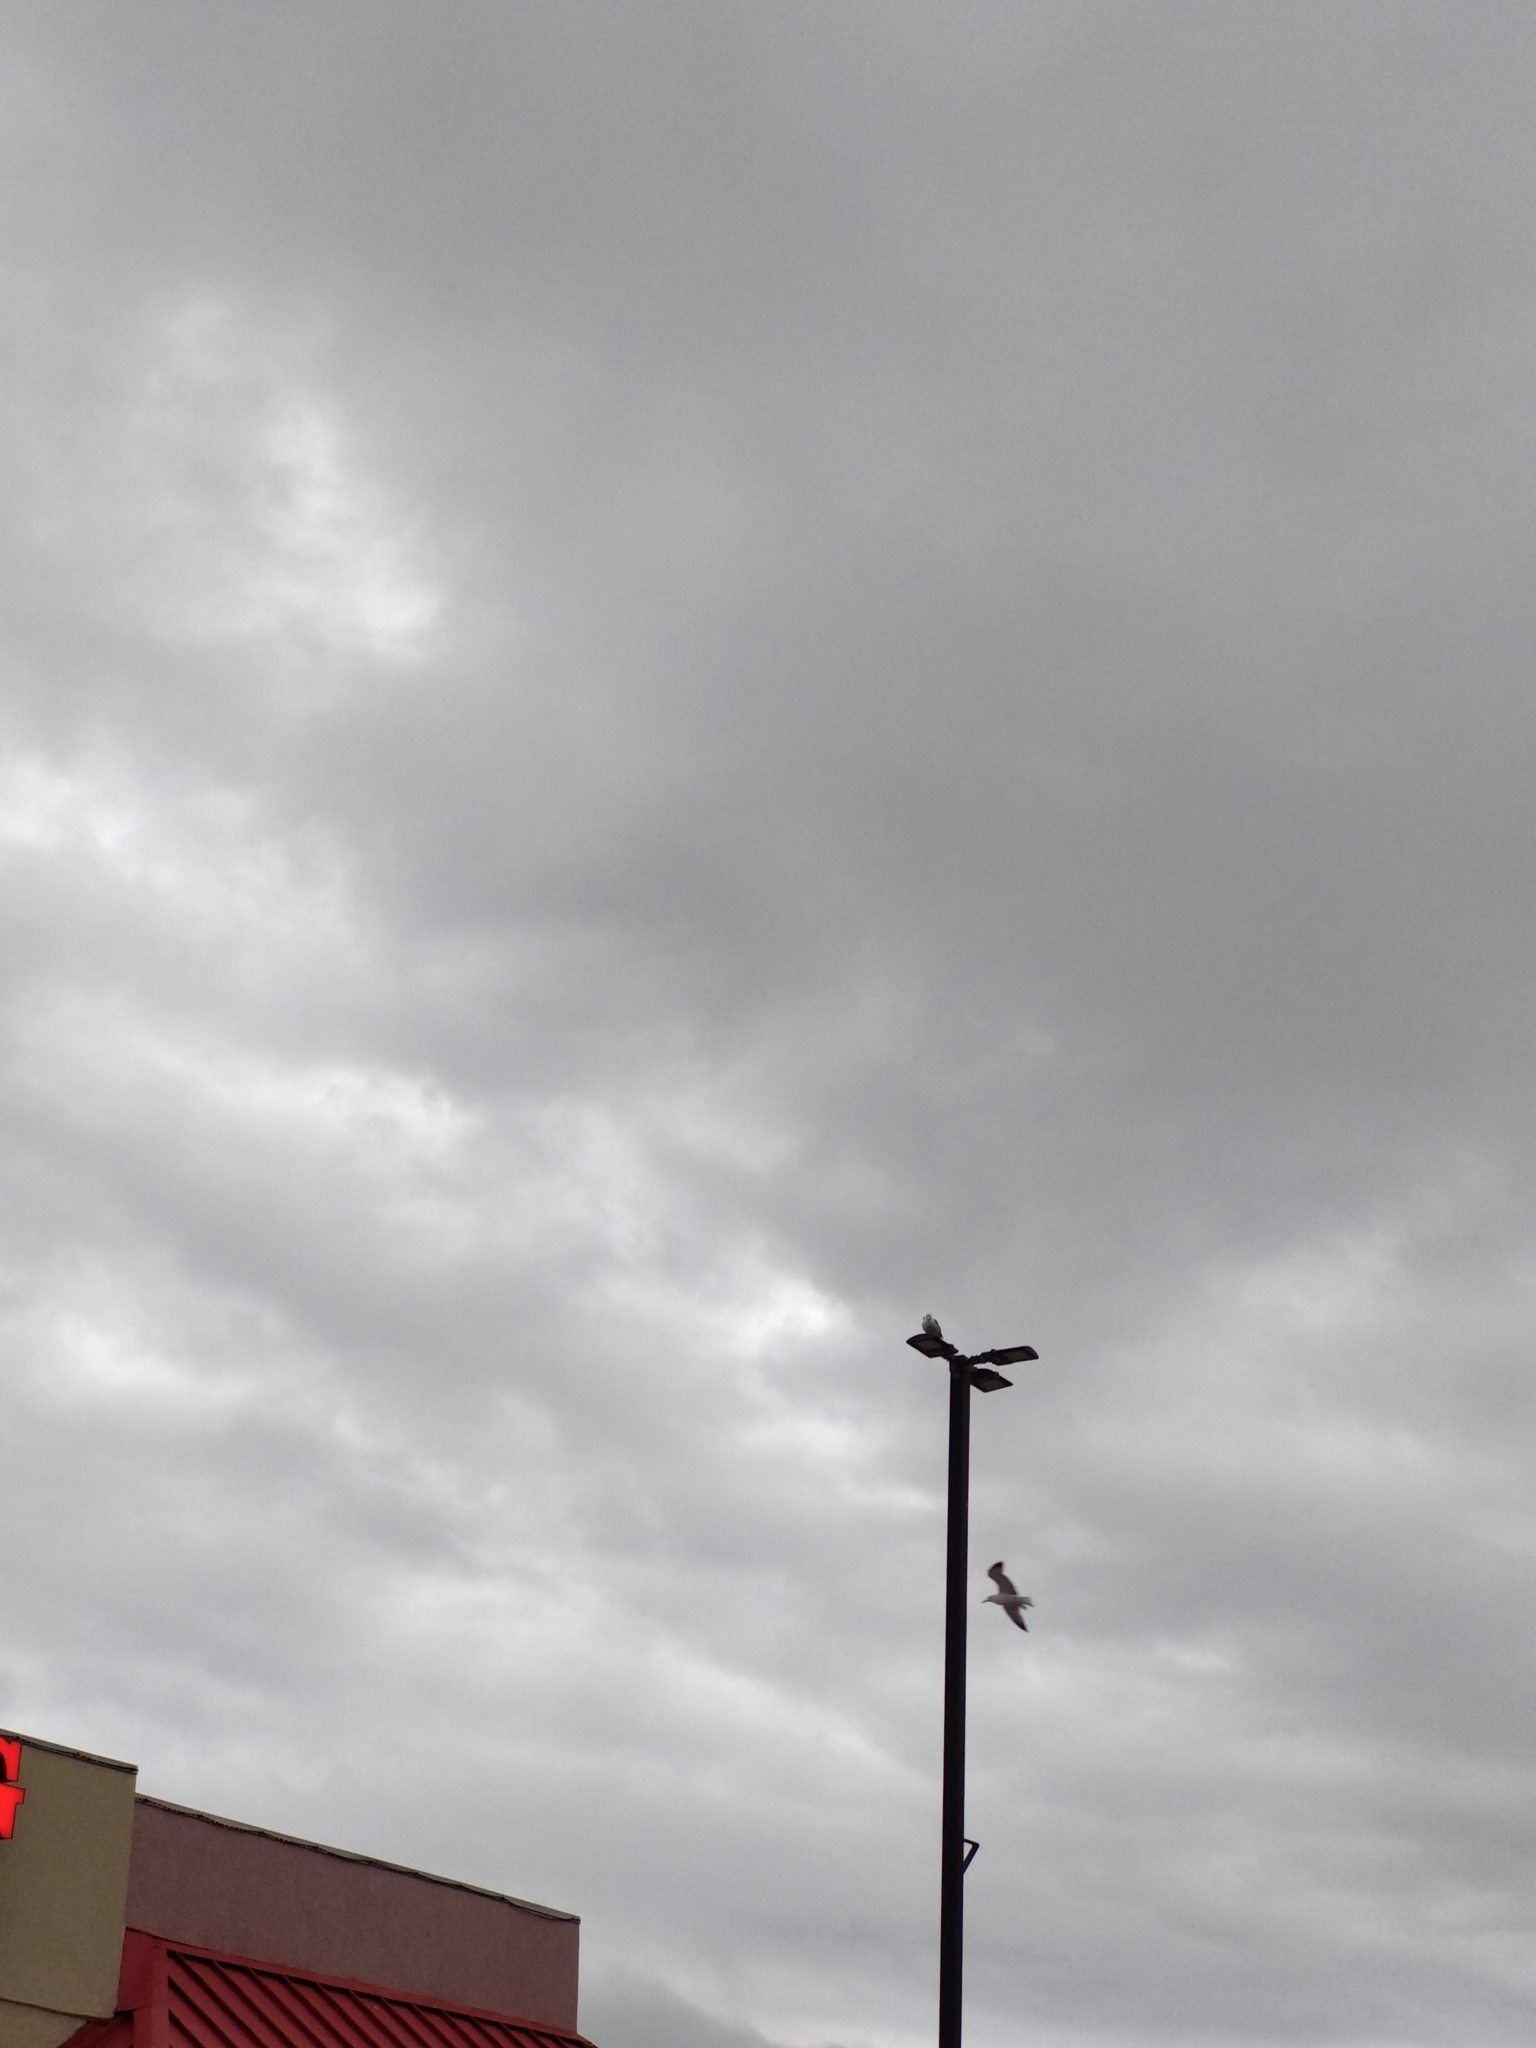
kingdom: Animalia
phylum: Chordata
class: Aves
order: Charadriiformes
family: Laridae
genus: Larus
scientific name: Larus californicus
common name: California gull
